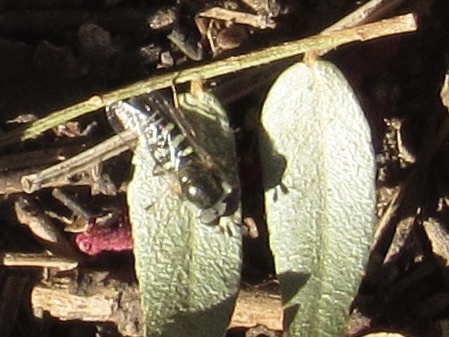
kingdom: Animalia
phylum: Arthropoda
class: Insecta
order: Diptera
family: Syrphidae
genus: Eupeodes
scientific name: Eupeodes volucris
